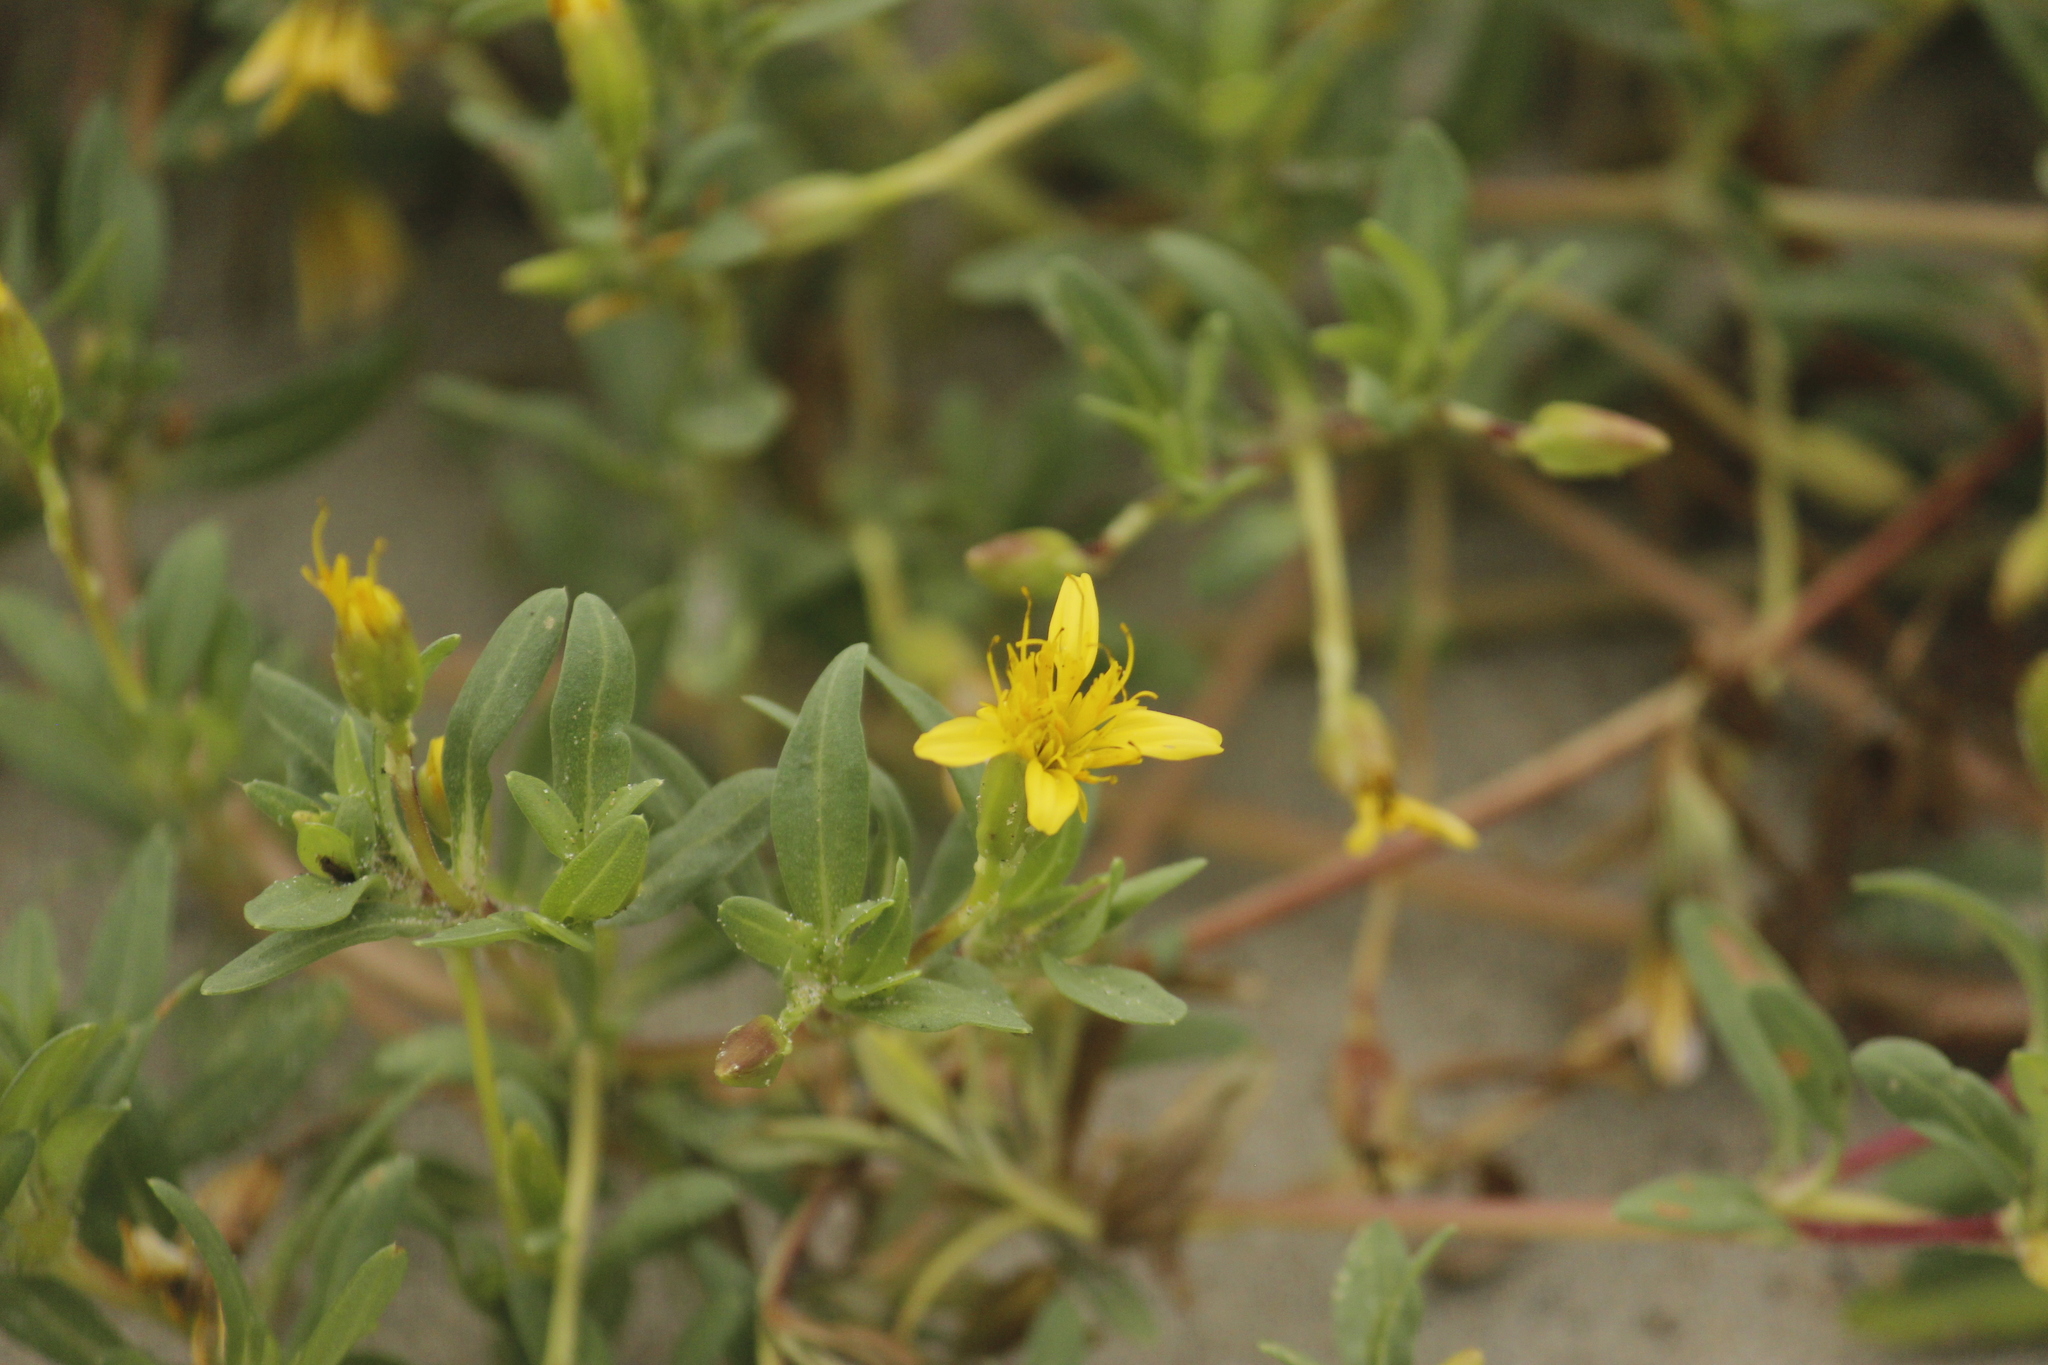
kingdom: Plantae
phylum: Tracheophyta
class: Magnoliopsida
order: Asterales
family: Asteraceae
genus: Pectis
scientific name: Pectis multiflosculosa
